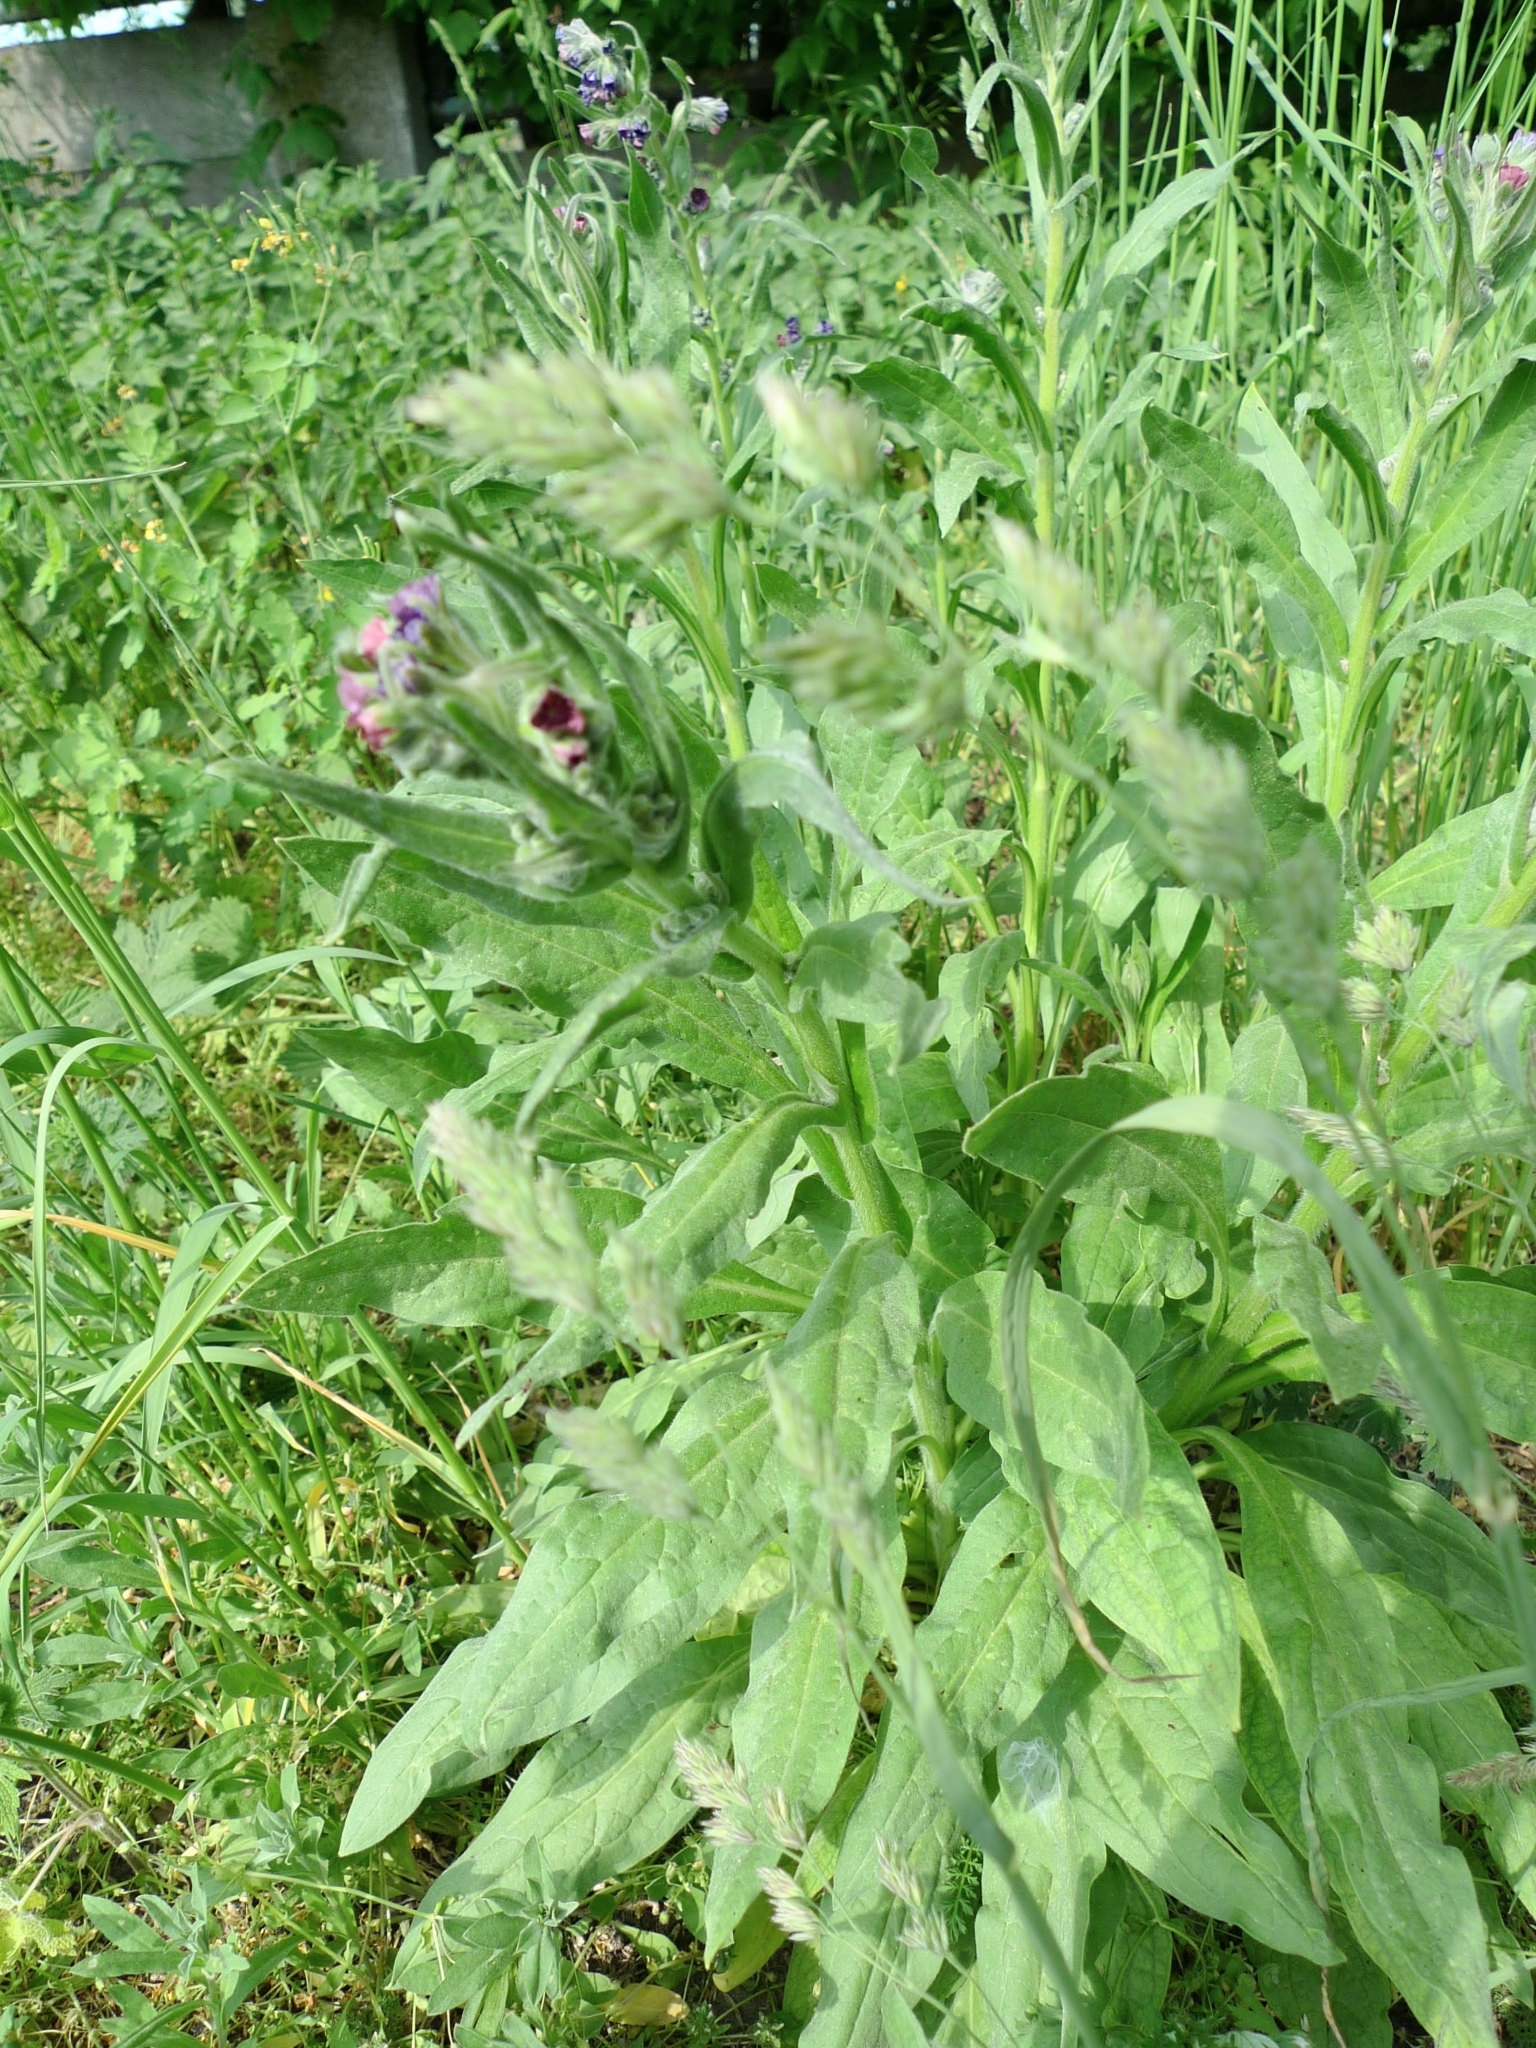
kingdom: Plantae
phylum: Tracheophyta
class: Magnoliopsida
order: Boraginales
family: Boraginaceae
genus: Cynoglossum
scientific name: Cynoglossum officinale
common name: Hound's-tongue
